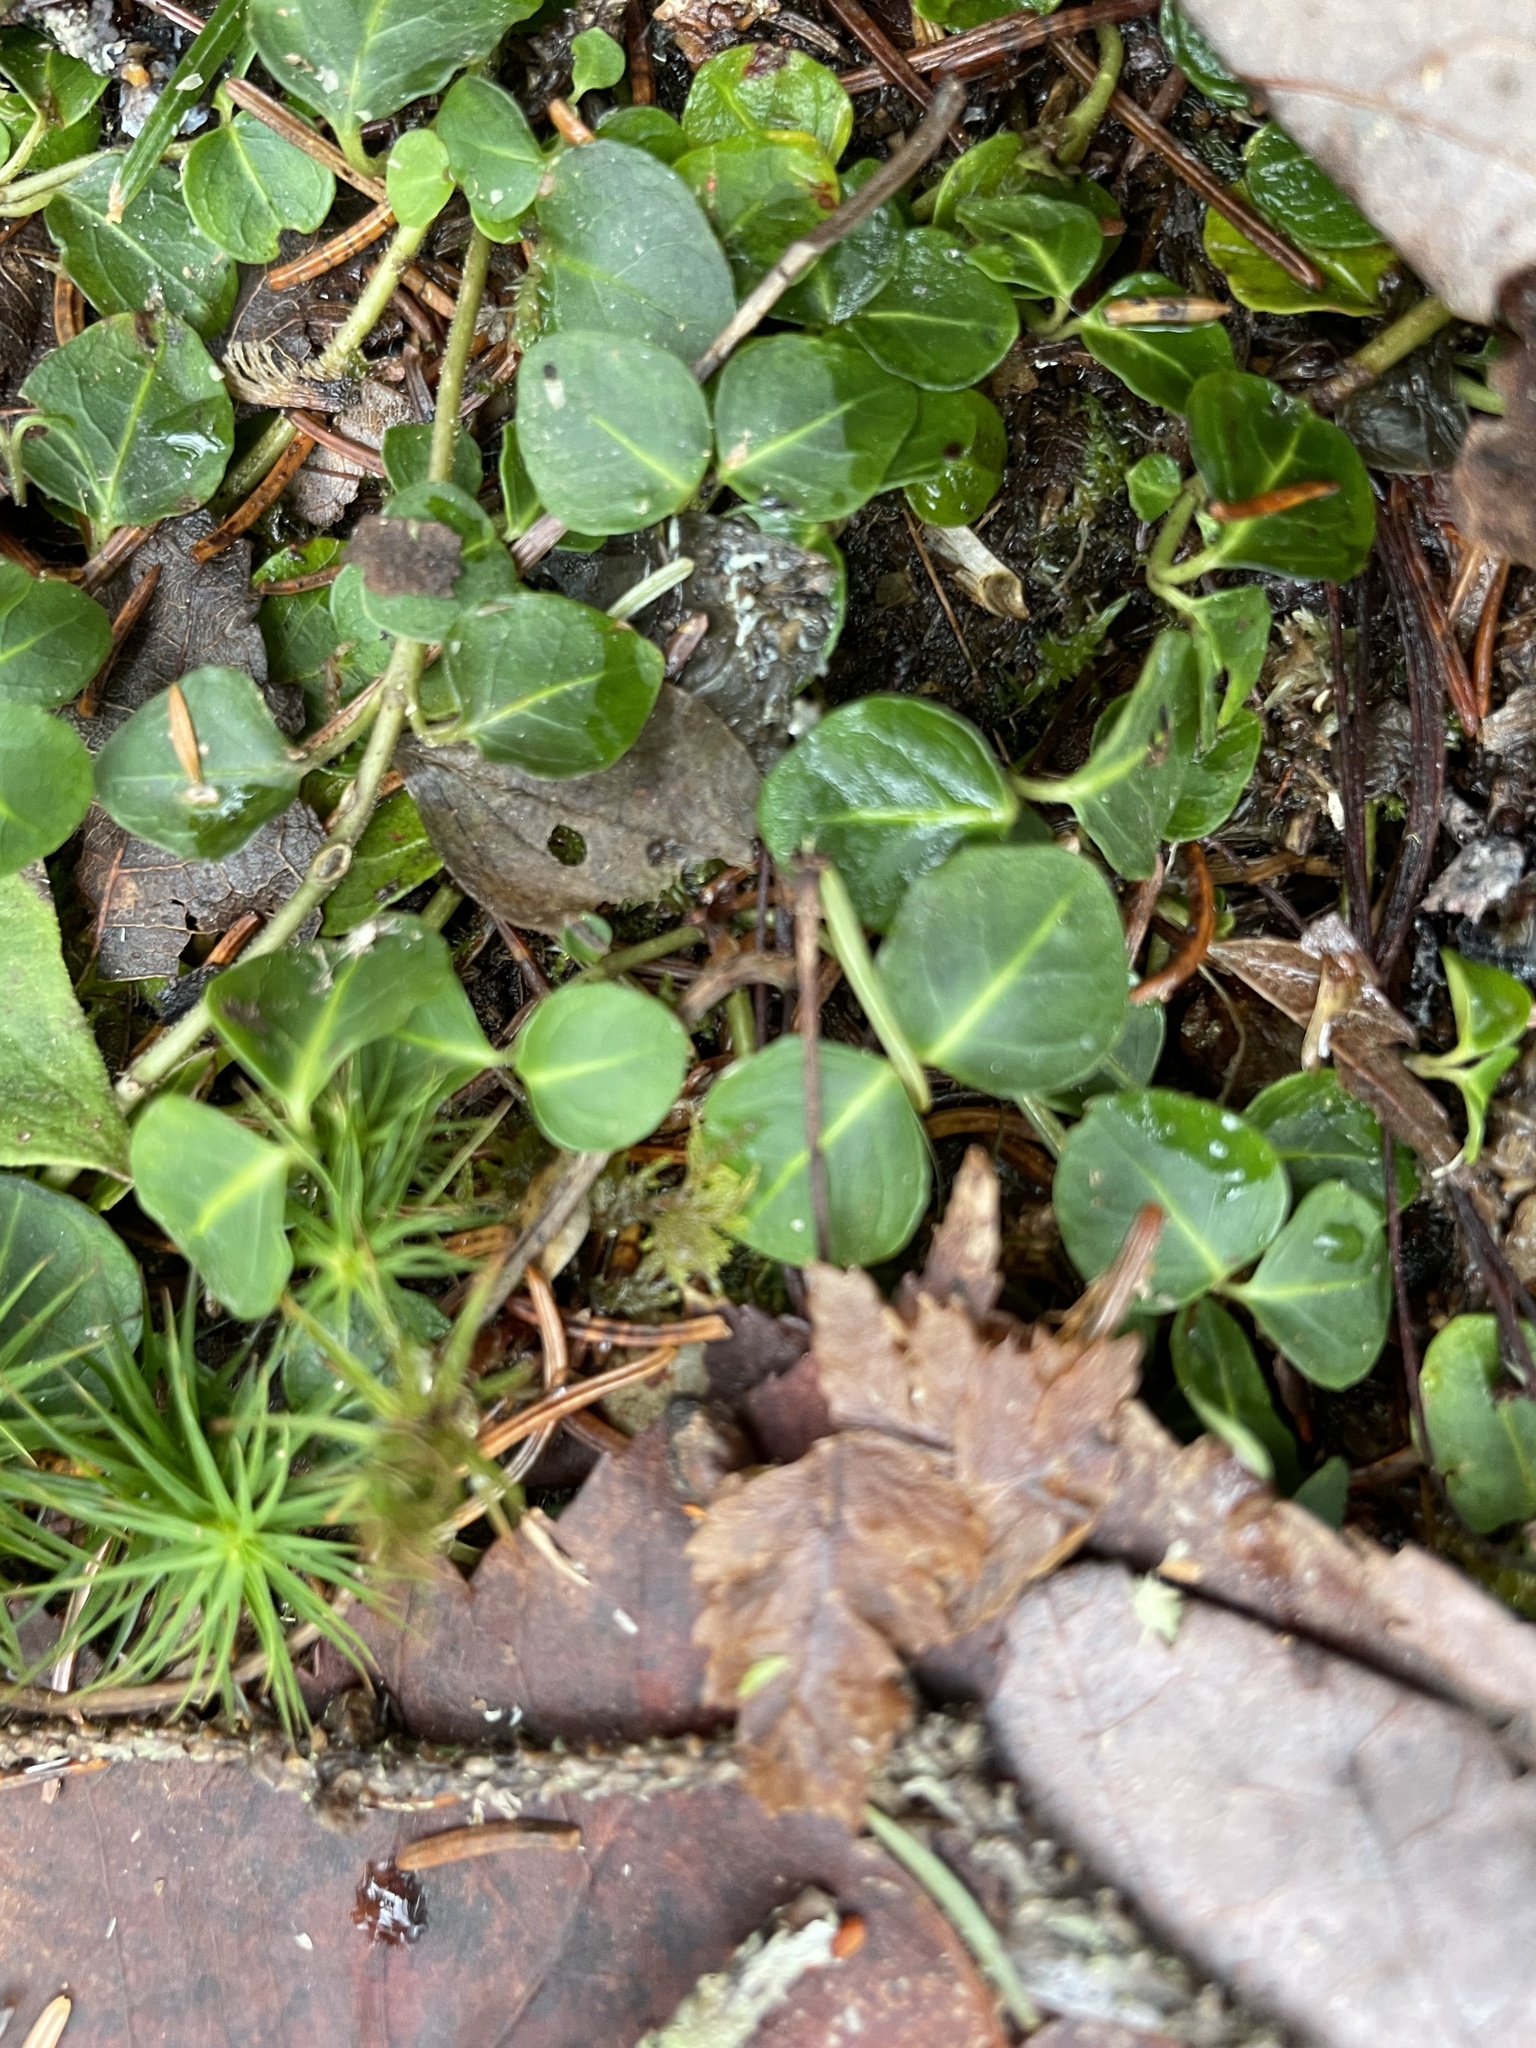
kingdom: Plantae
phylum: Tracheophyta
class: Magnoliopsida
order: Gentianales
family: Rubiaceae
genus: Mitchella
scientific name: Mitchella repens
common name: Partridge-berry
